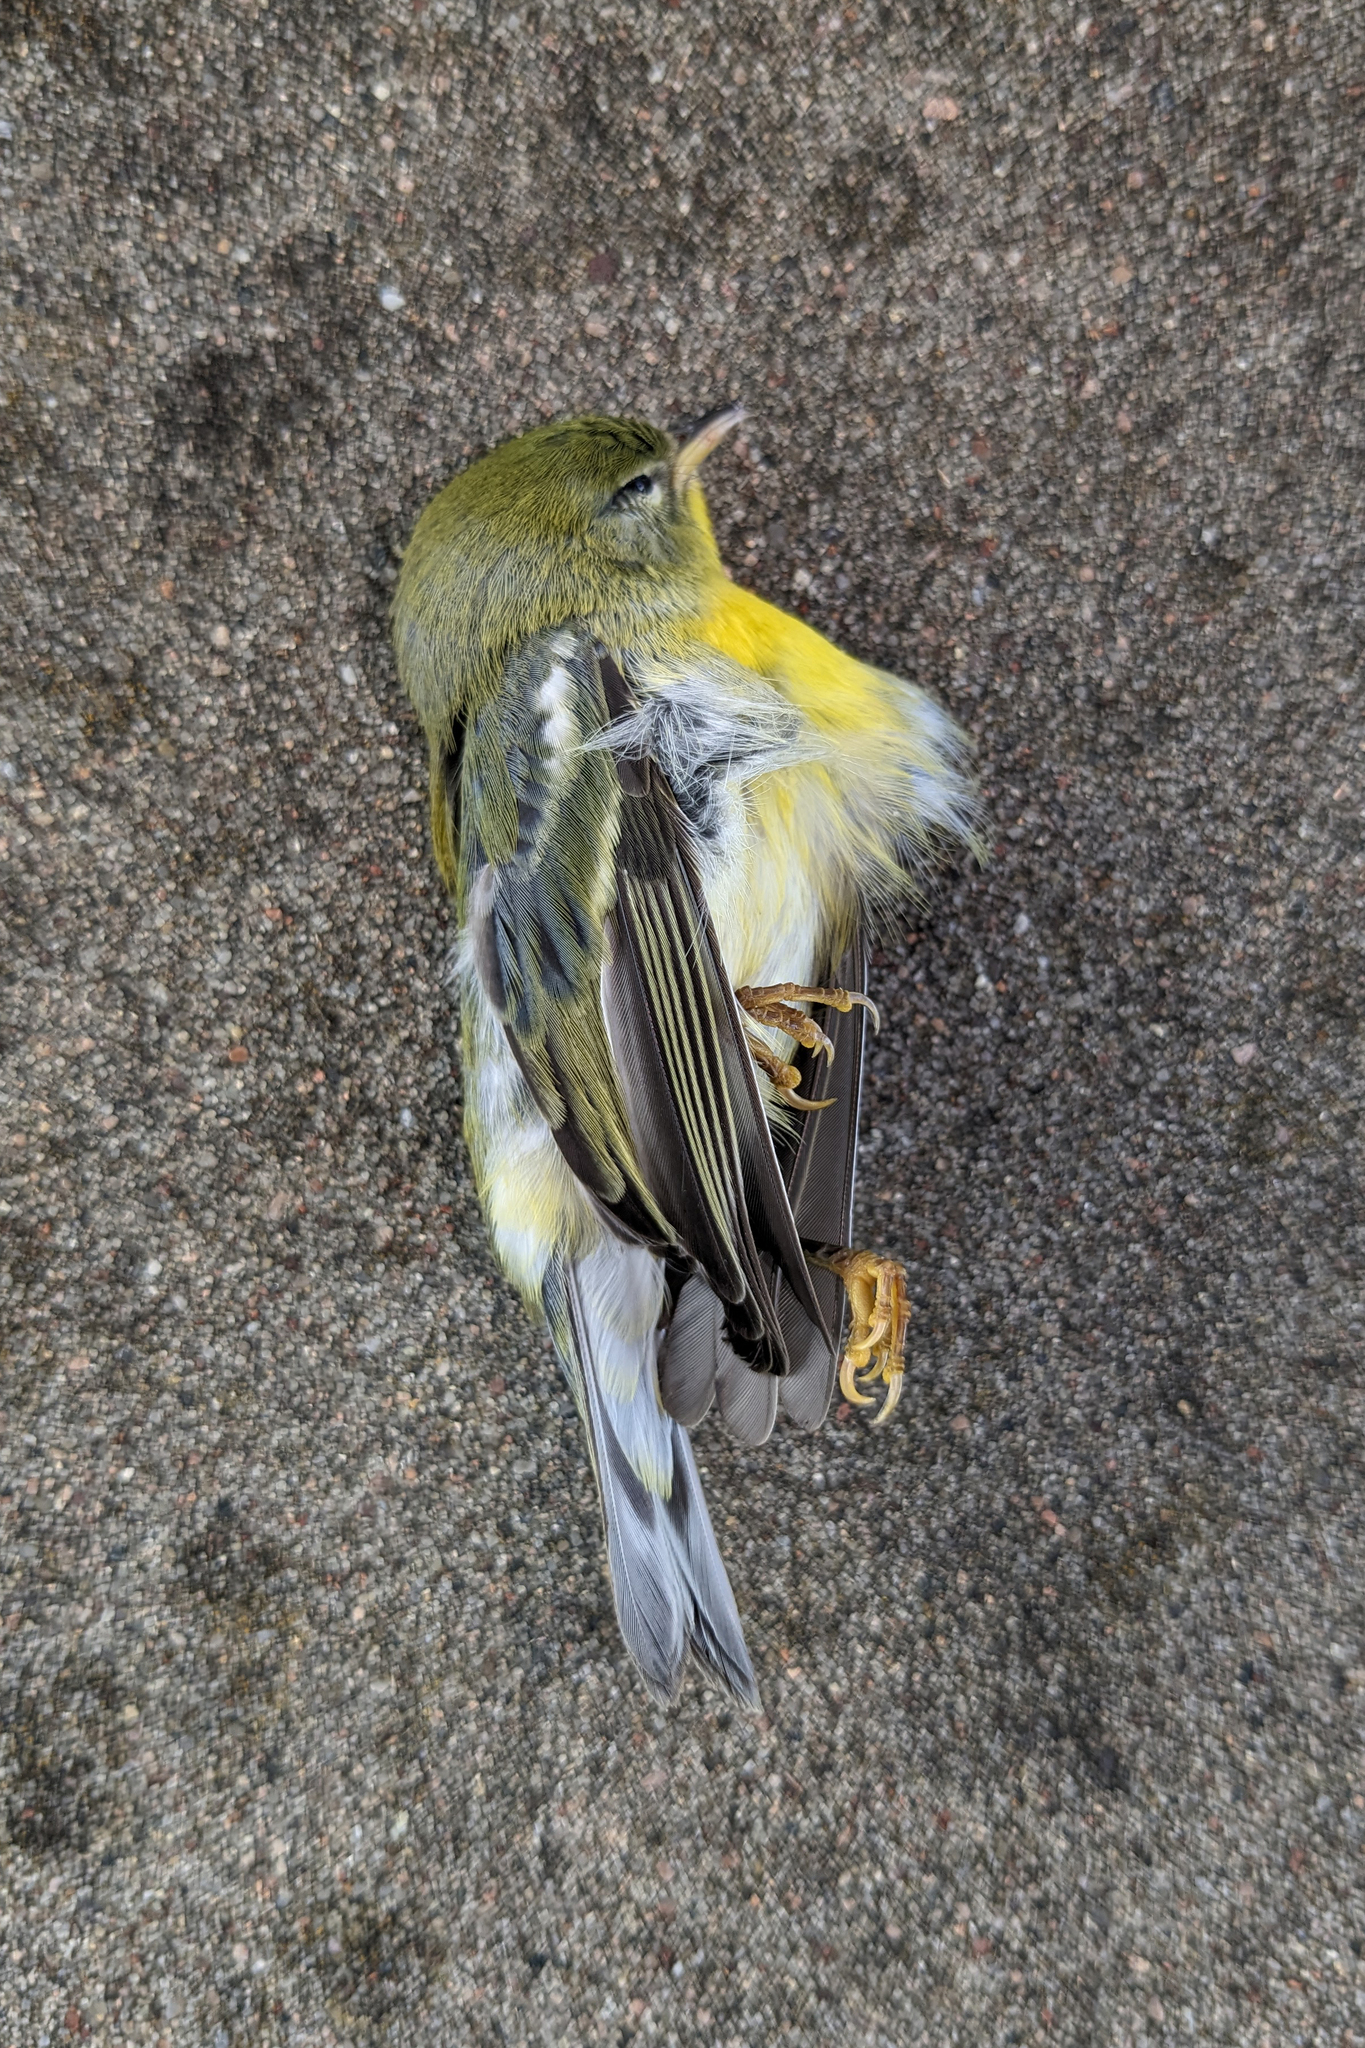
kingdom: Animalia
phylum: Chordata
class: Aves
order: Passeriformes
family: Parulidae
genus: Setophaga
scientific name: Setophaga americana
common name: Northern parula
